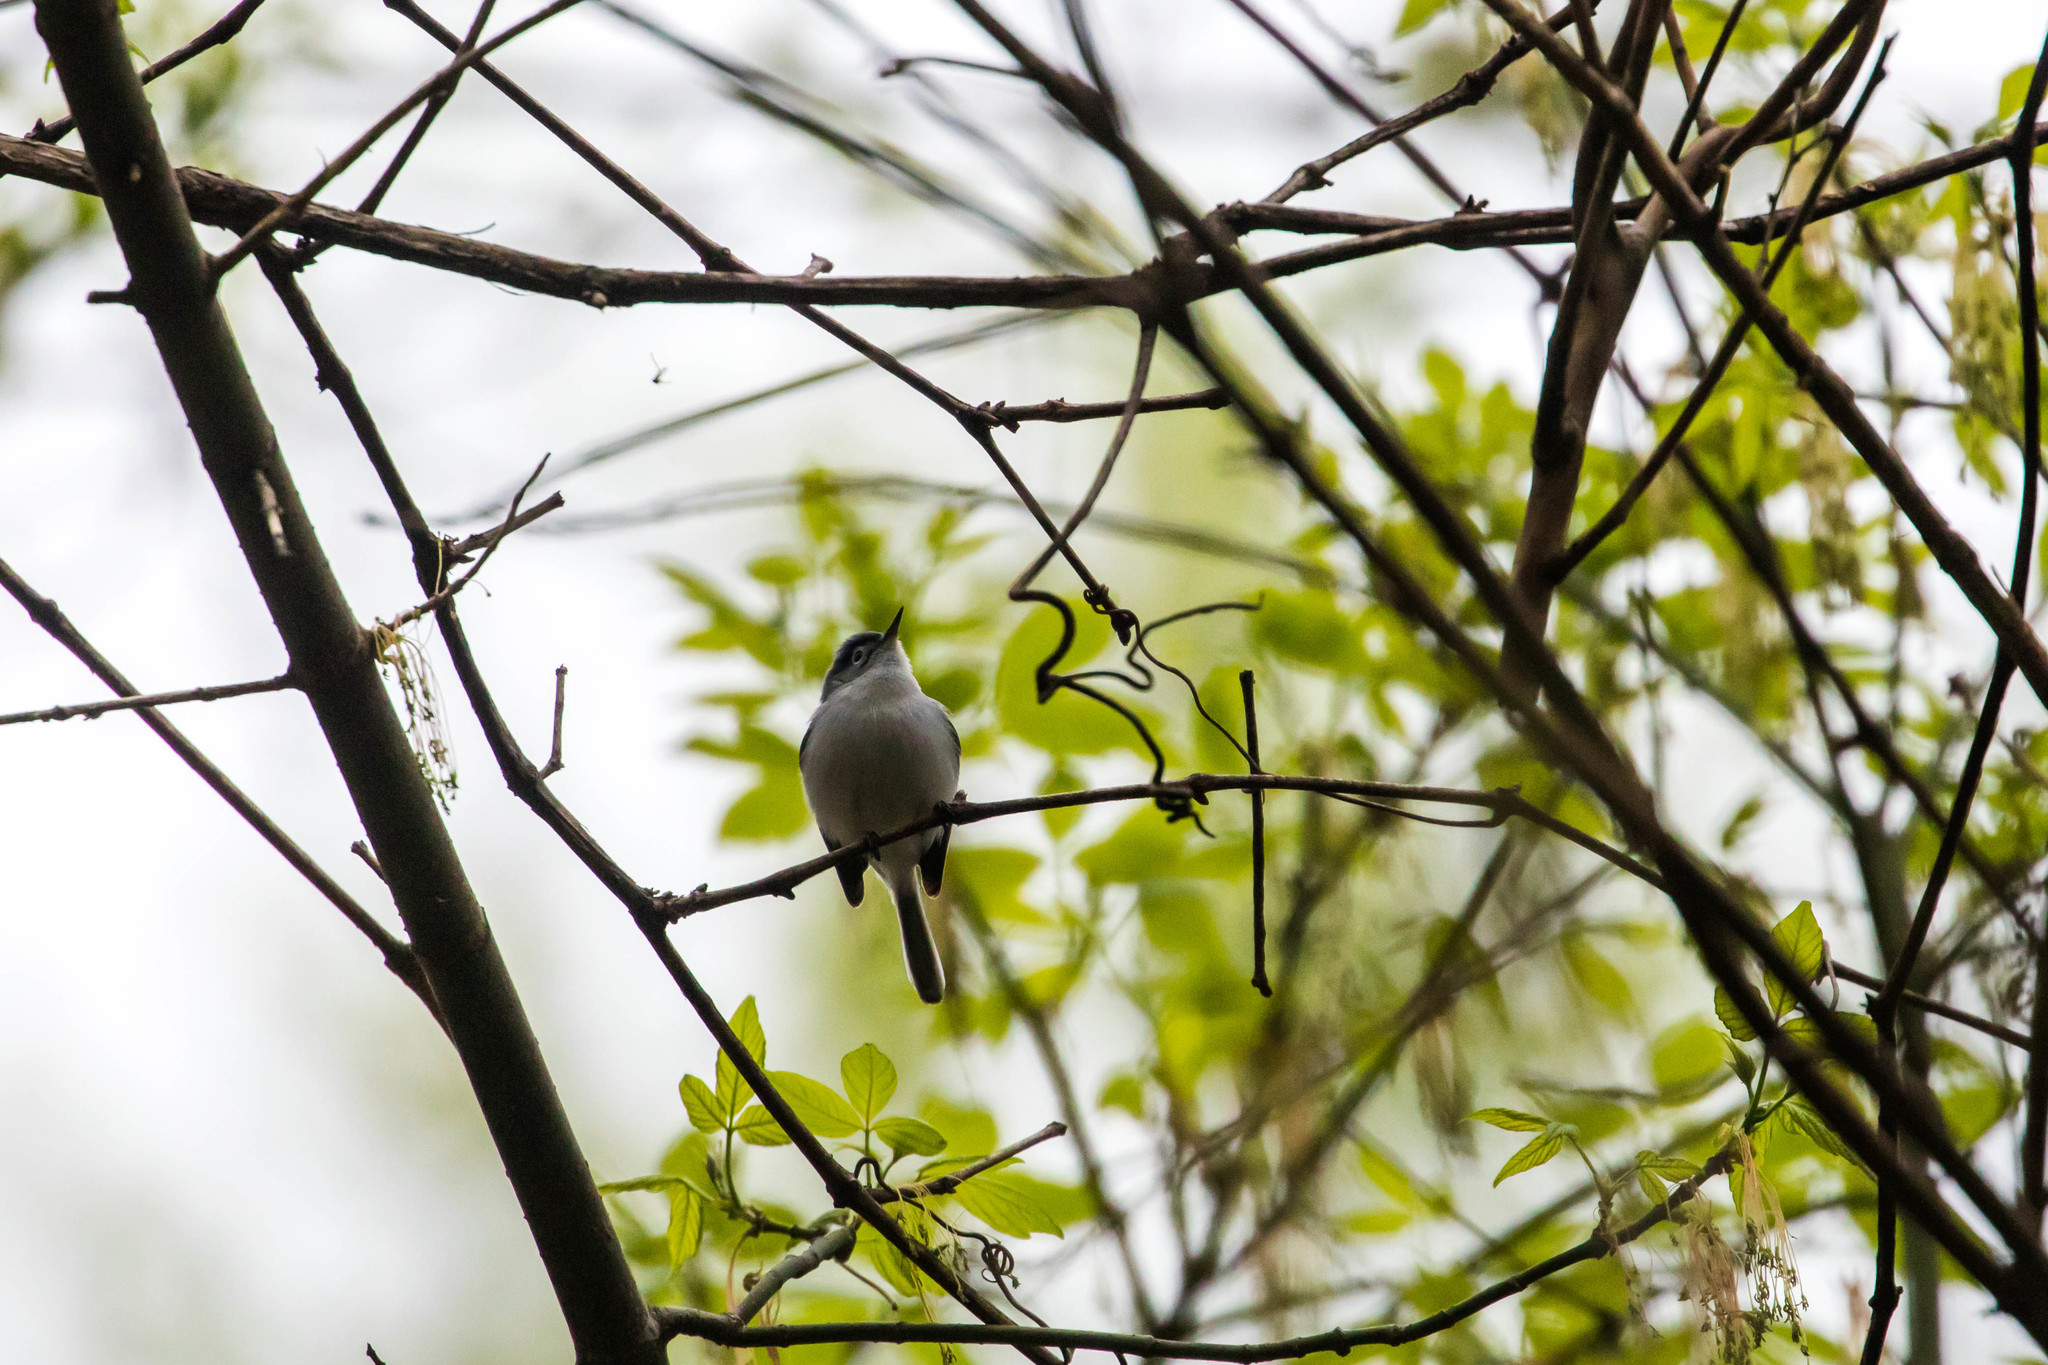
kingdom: Animalia
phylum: Chordata
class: Aves
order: Passeriformes
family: Polioptilidae
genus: Polioptila
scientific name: Polioptila caerulea
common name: Blue-gray gnatcatcher
